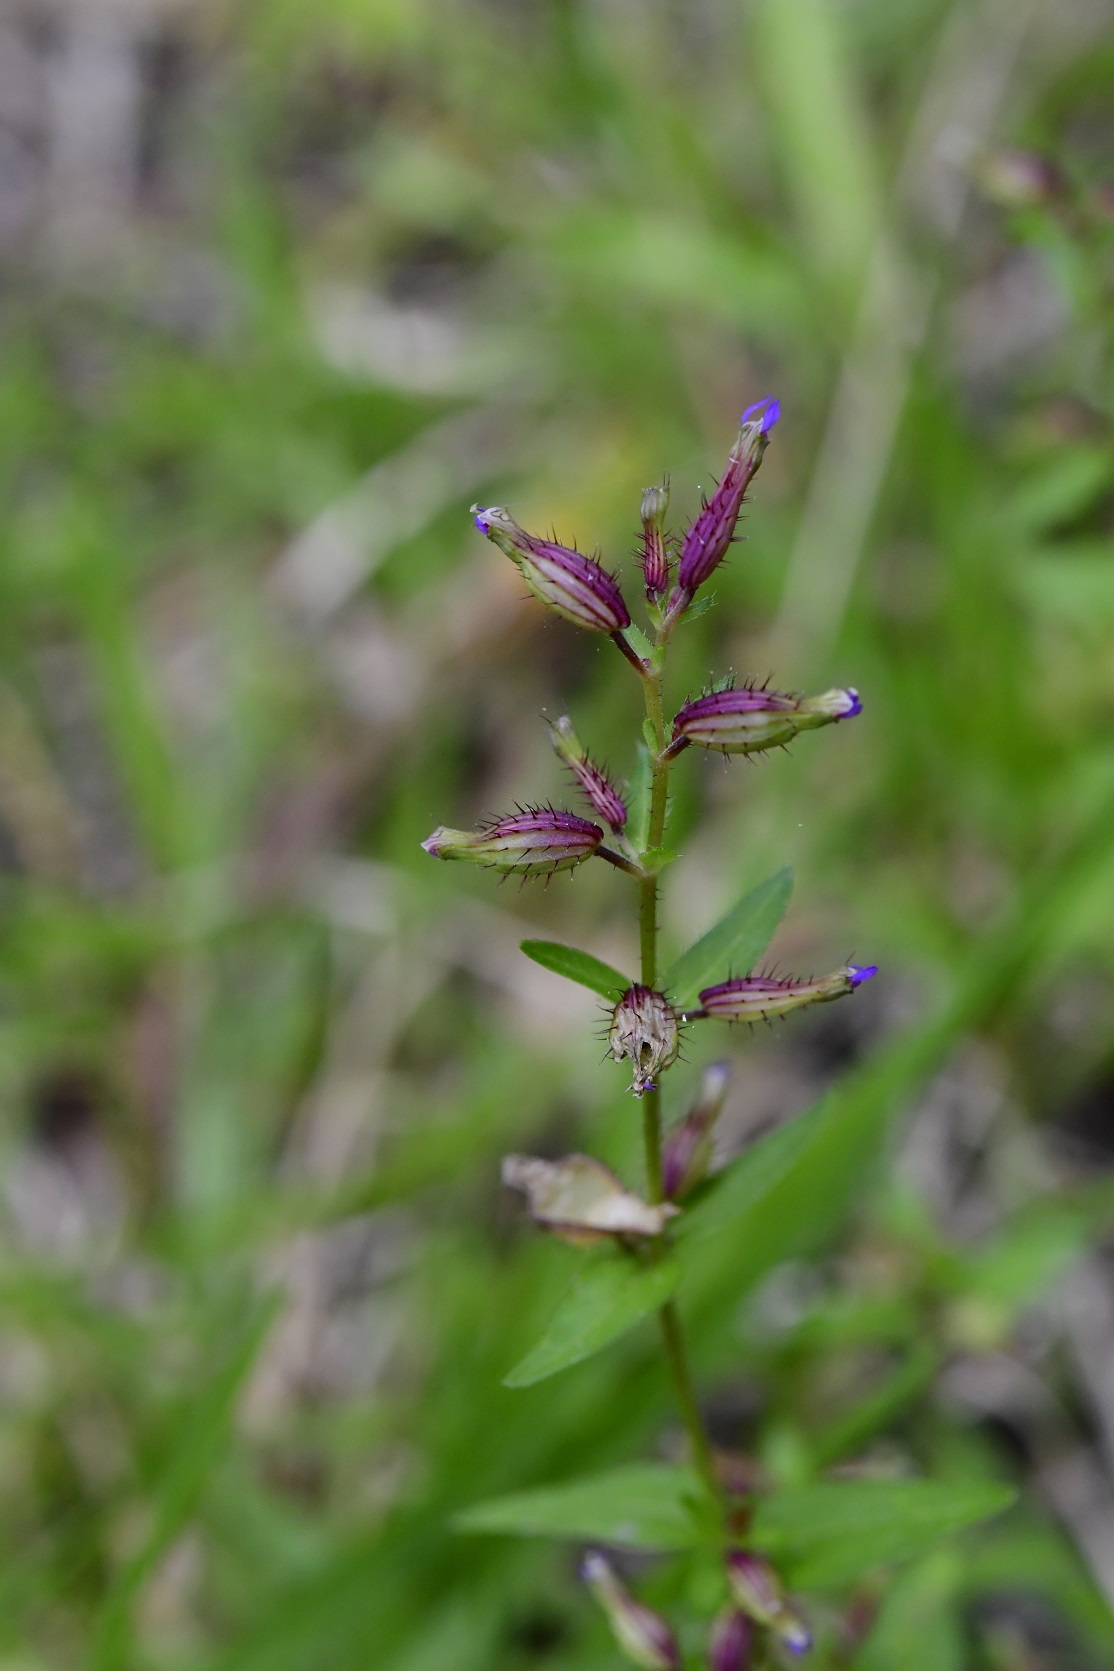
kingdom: Plantae
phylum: Tracheophyta
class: Magnoliopsida
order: Myrtales
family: Lythraceae
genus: Cuphea
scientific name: Cuphea tolucana
